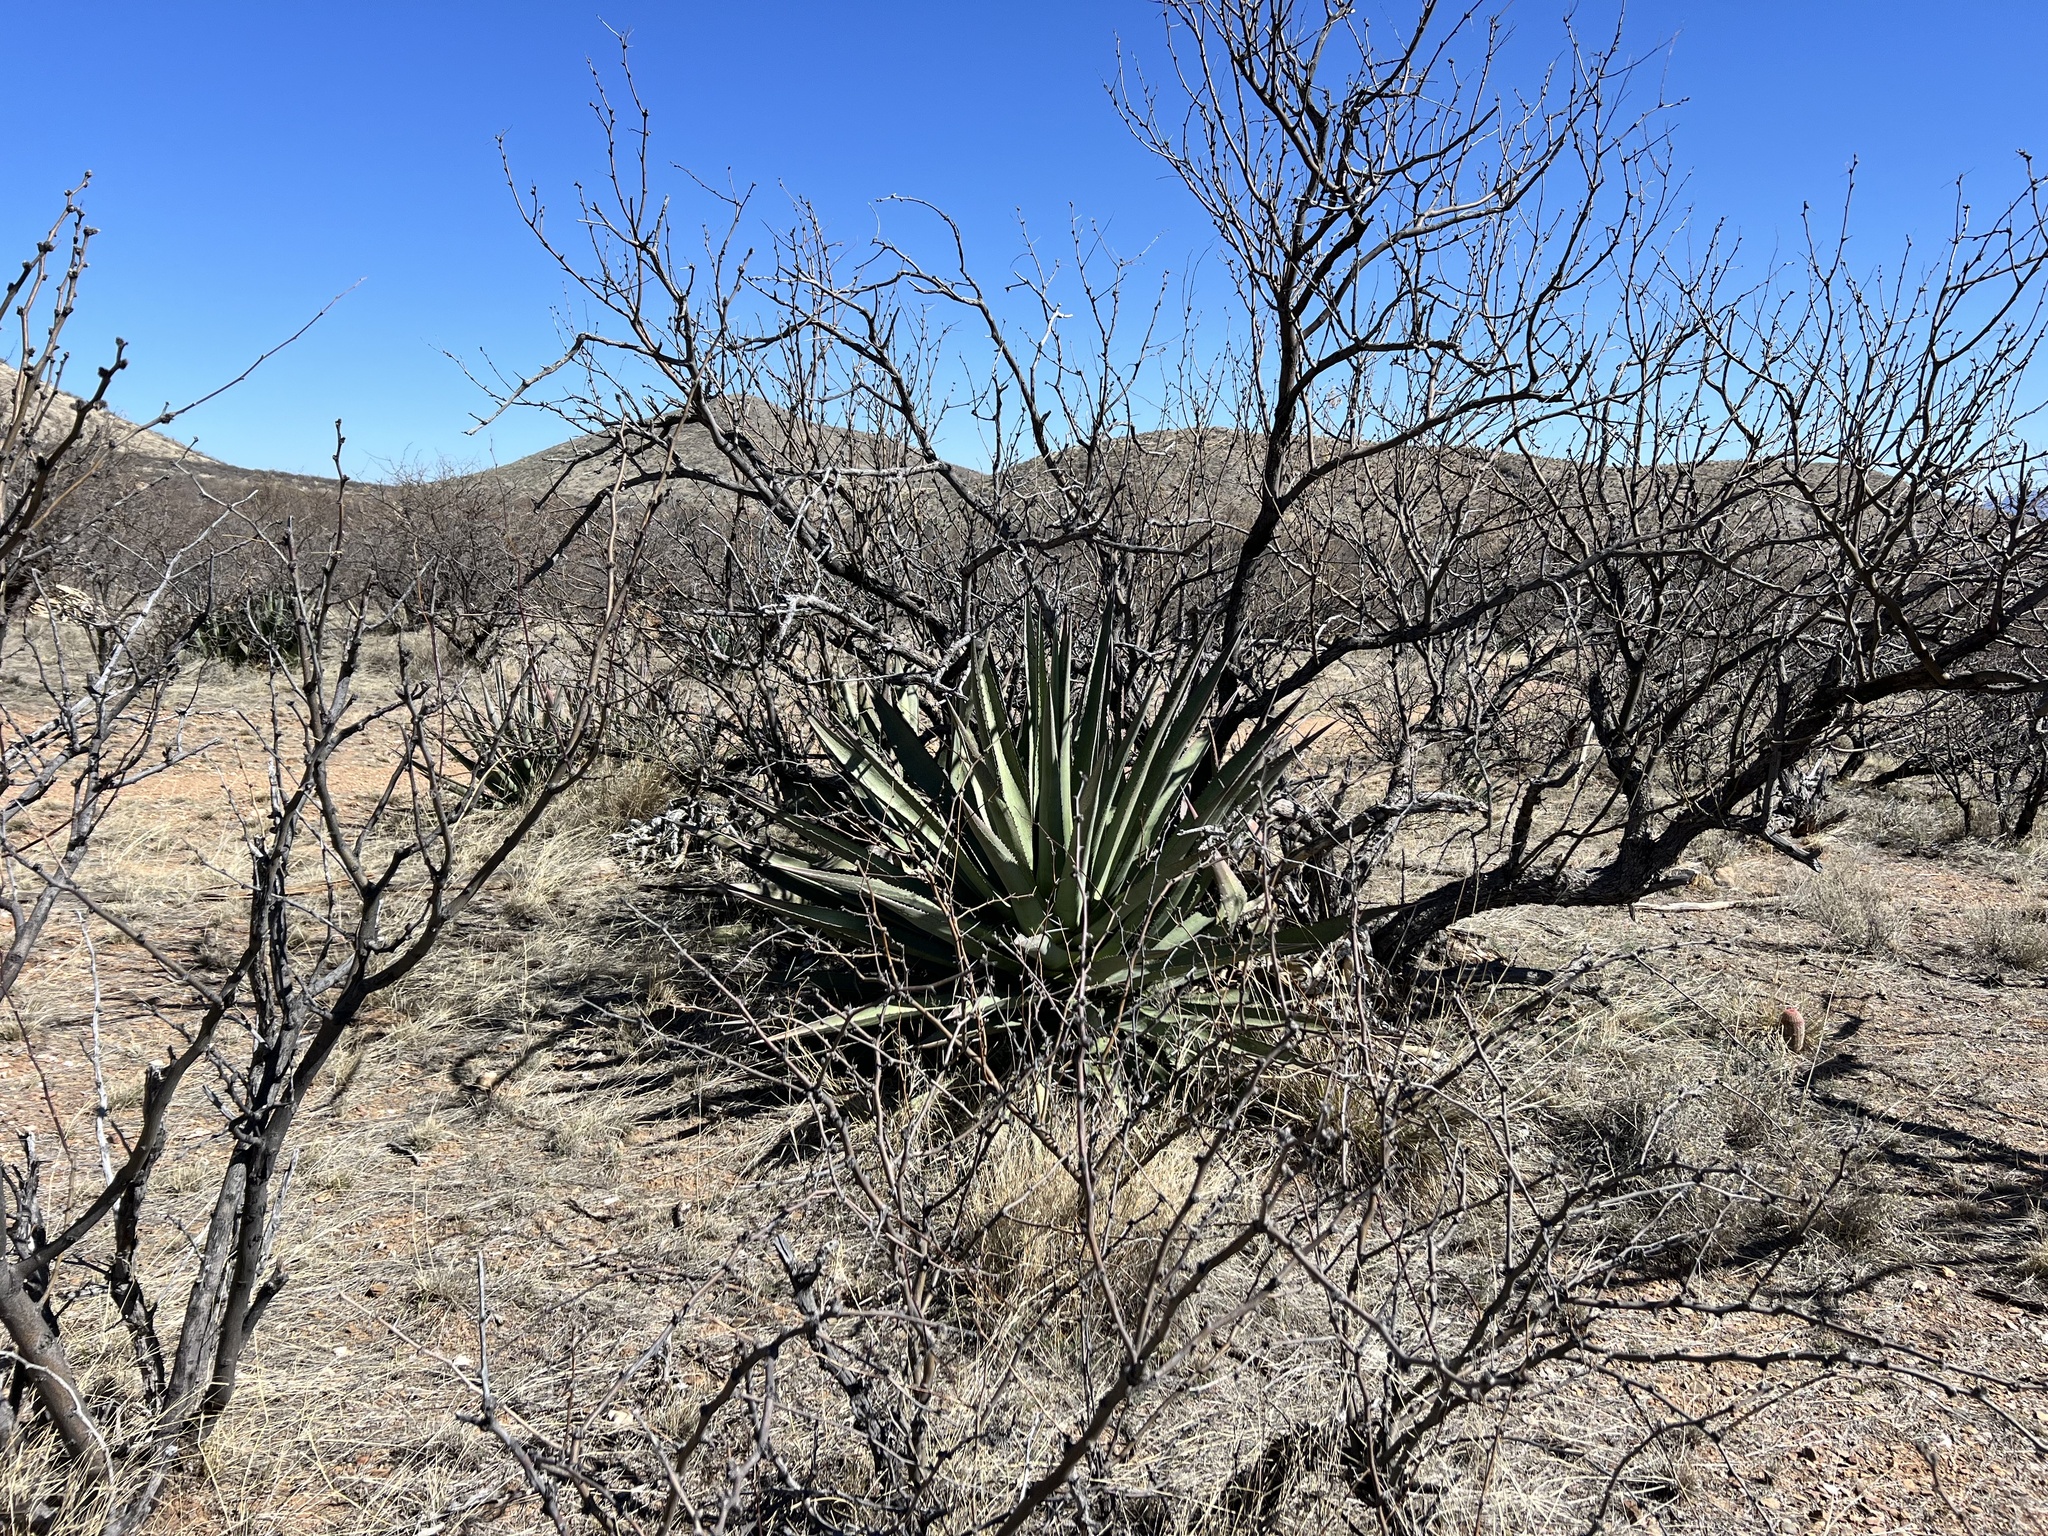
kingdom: Plantae
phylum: Tracheophyta
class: Liliopsida
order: Asparagales
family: Asparagaceae
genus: Agave
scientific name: Agave palmeri
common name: Palmer agave
